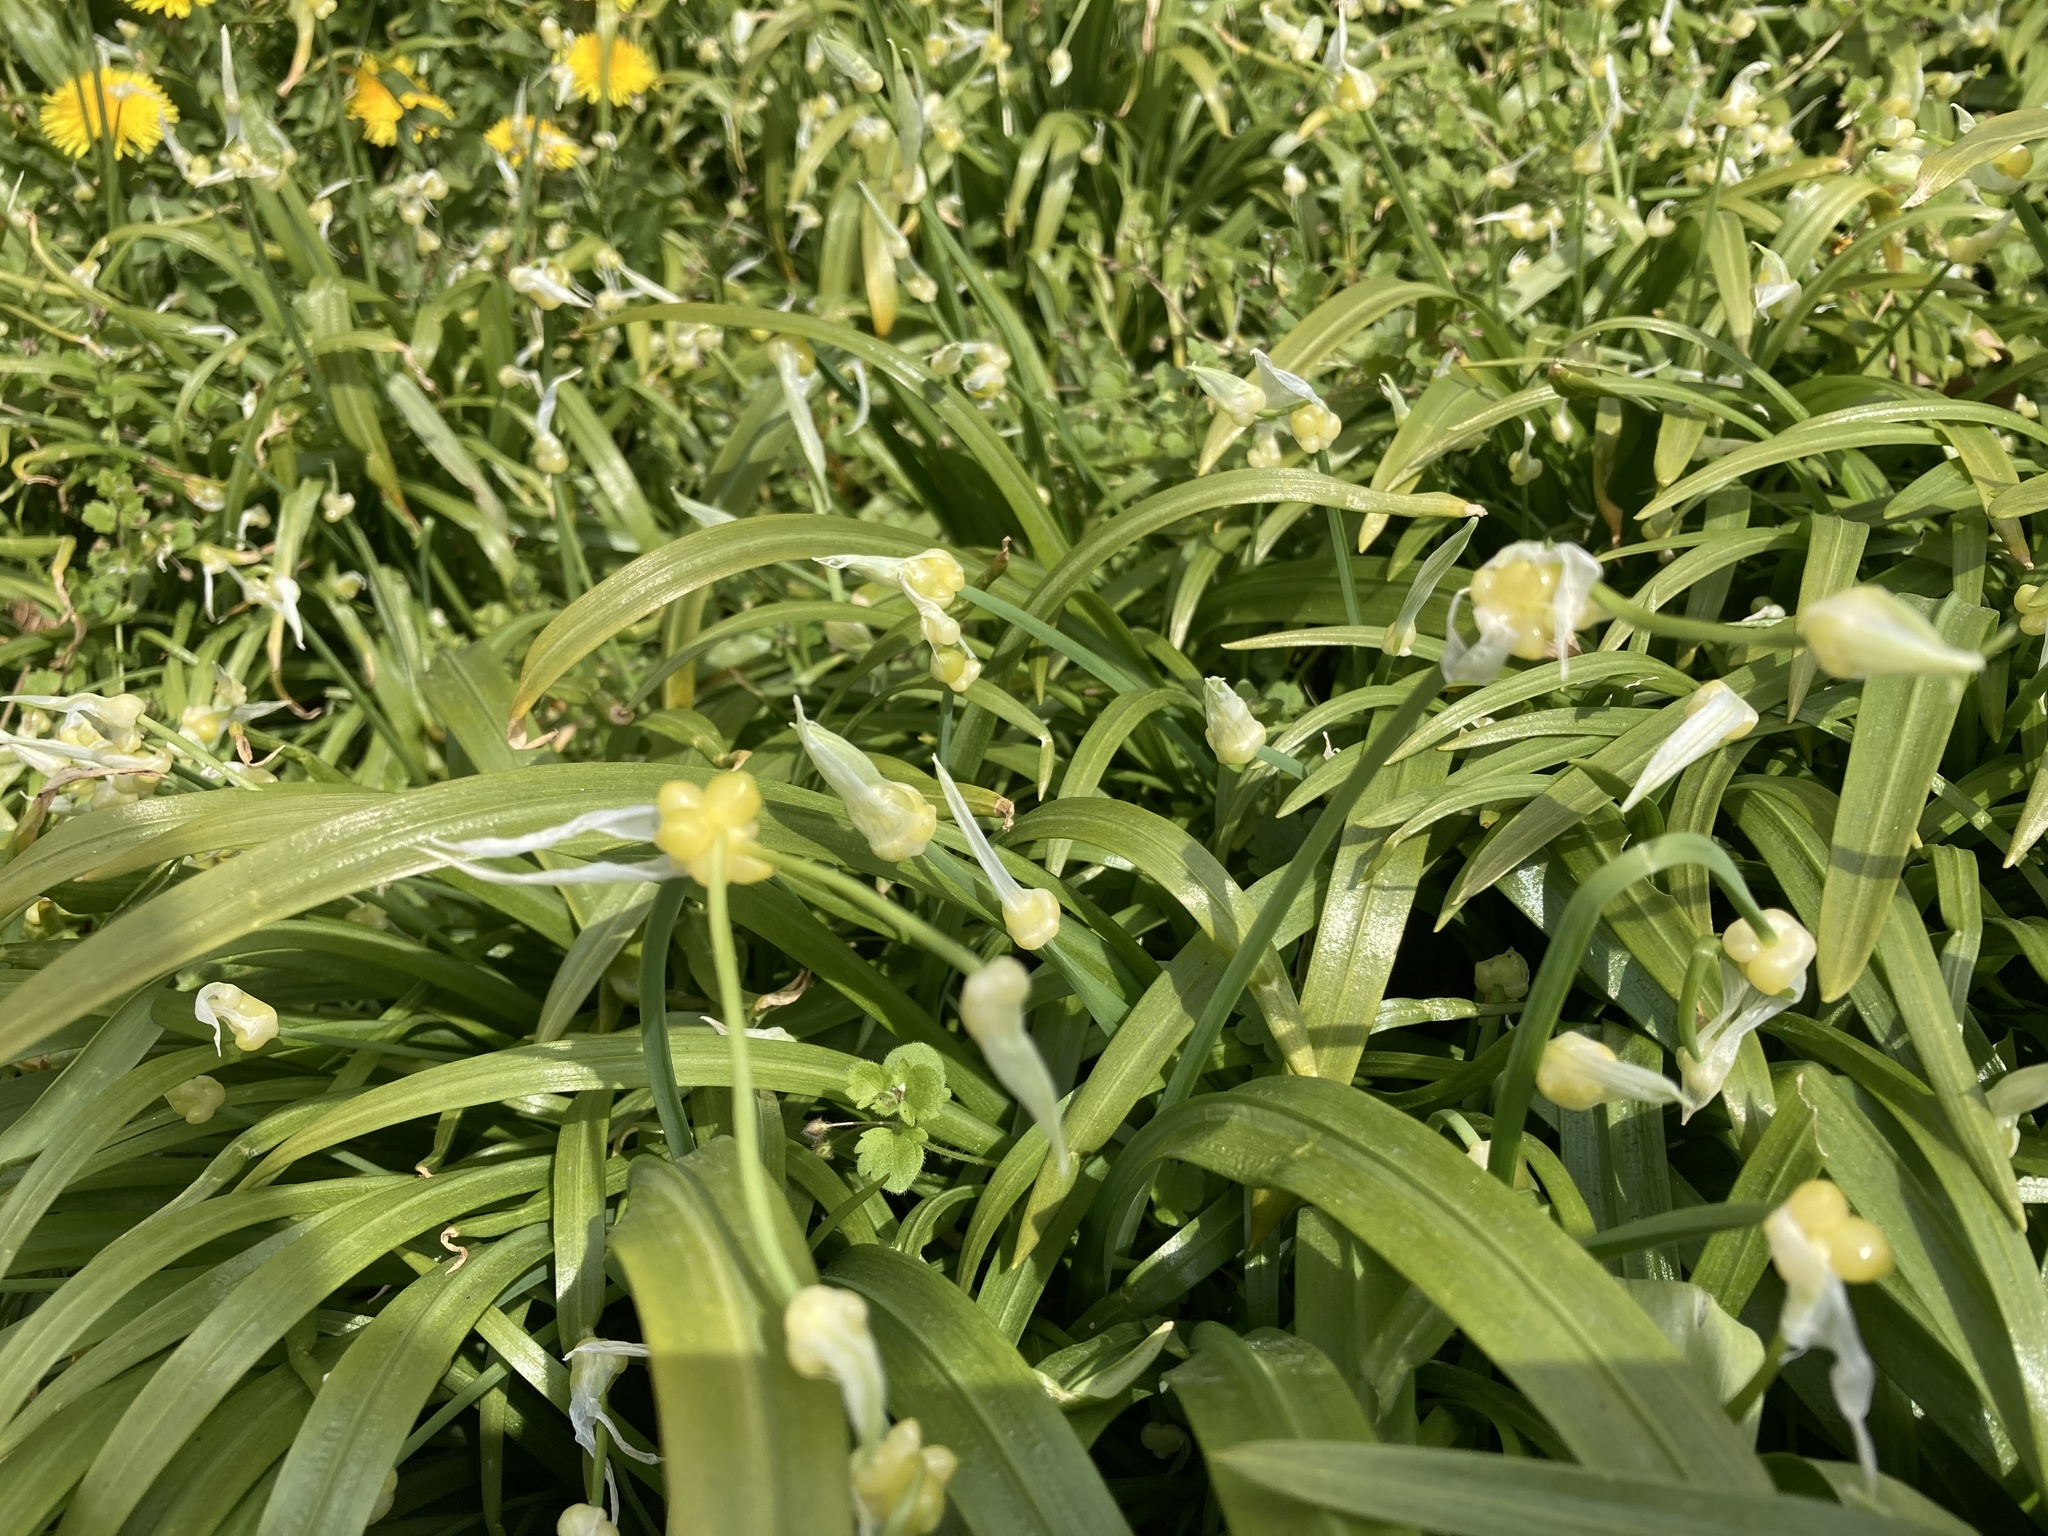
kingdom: Plantae
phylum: Tracheophyta
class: Liliopsida
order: Asparagales
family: Amaryllidaceae
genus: Allium
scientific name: Allium paradoxum
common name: Few-flowered garlic
